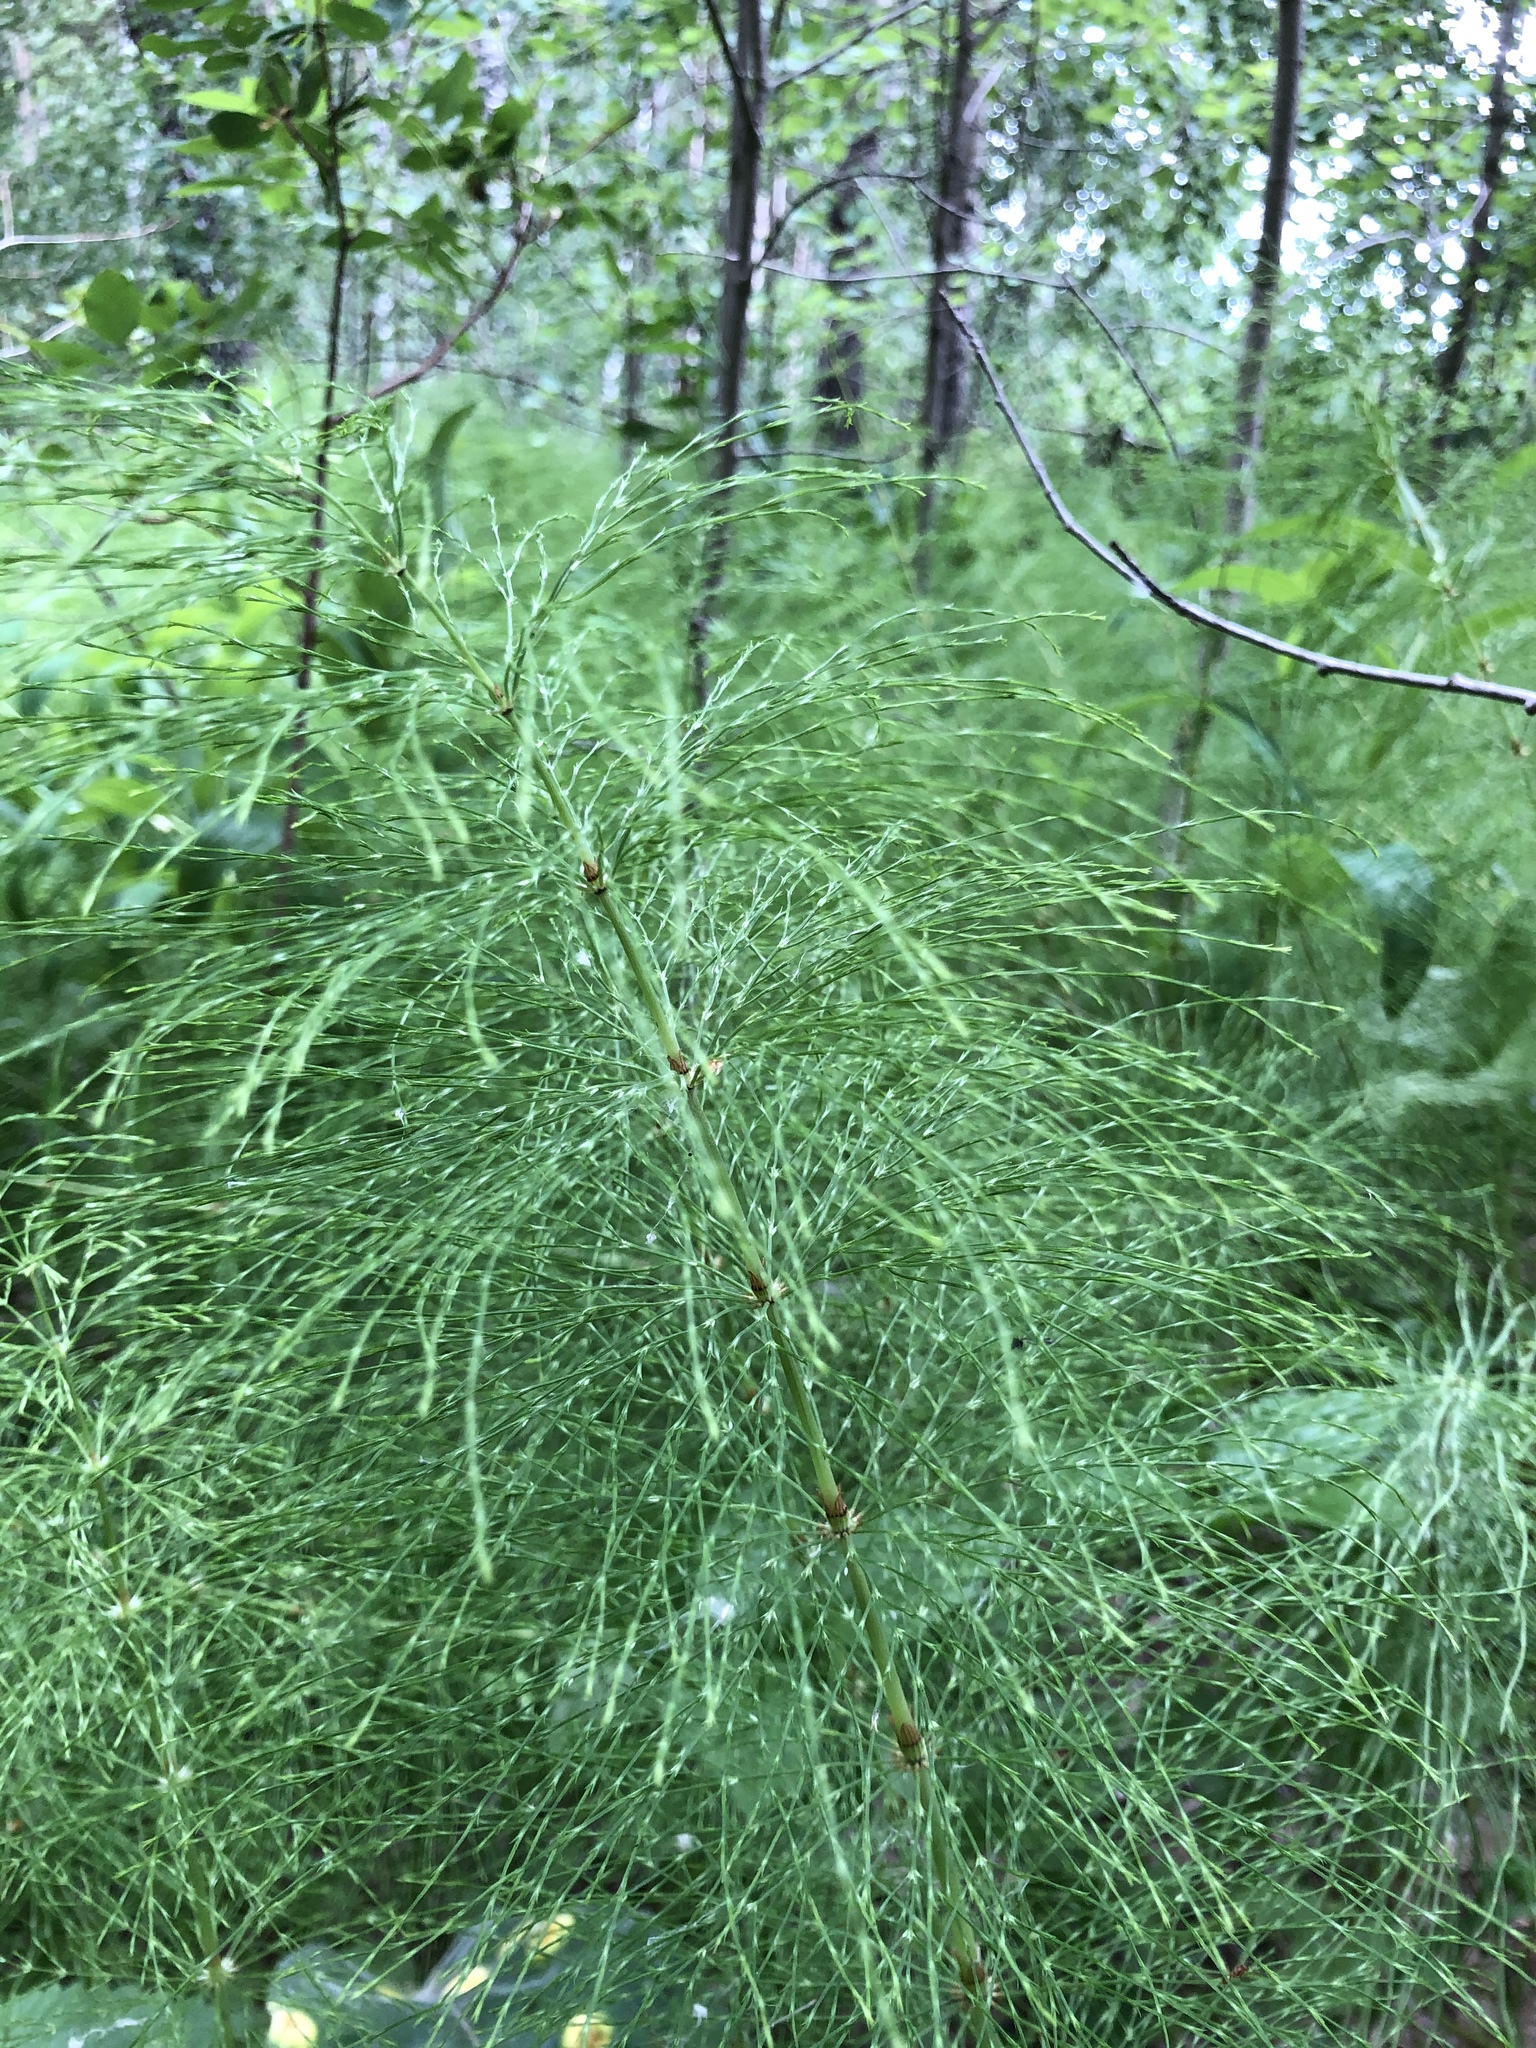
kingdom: Plantae
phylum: Tracheophyta
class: Polypodiopsida
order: Equisetales
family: Equisetaceae
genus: Equisetum
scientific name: Equisetum sylvaticum
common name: Wood horsetail
